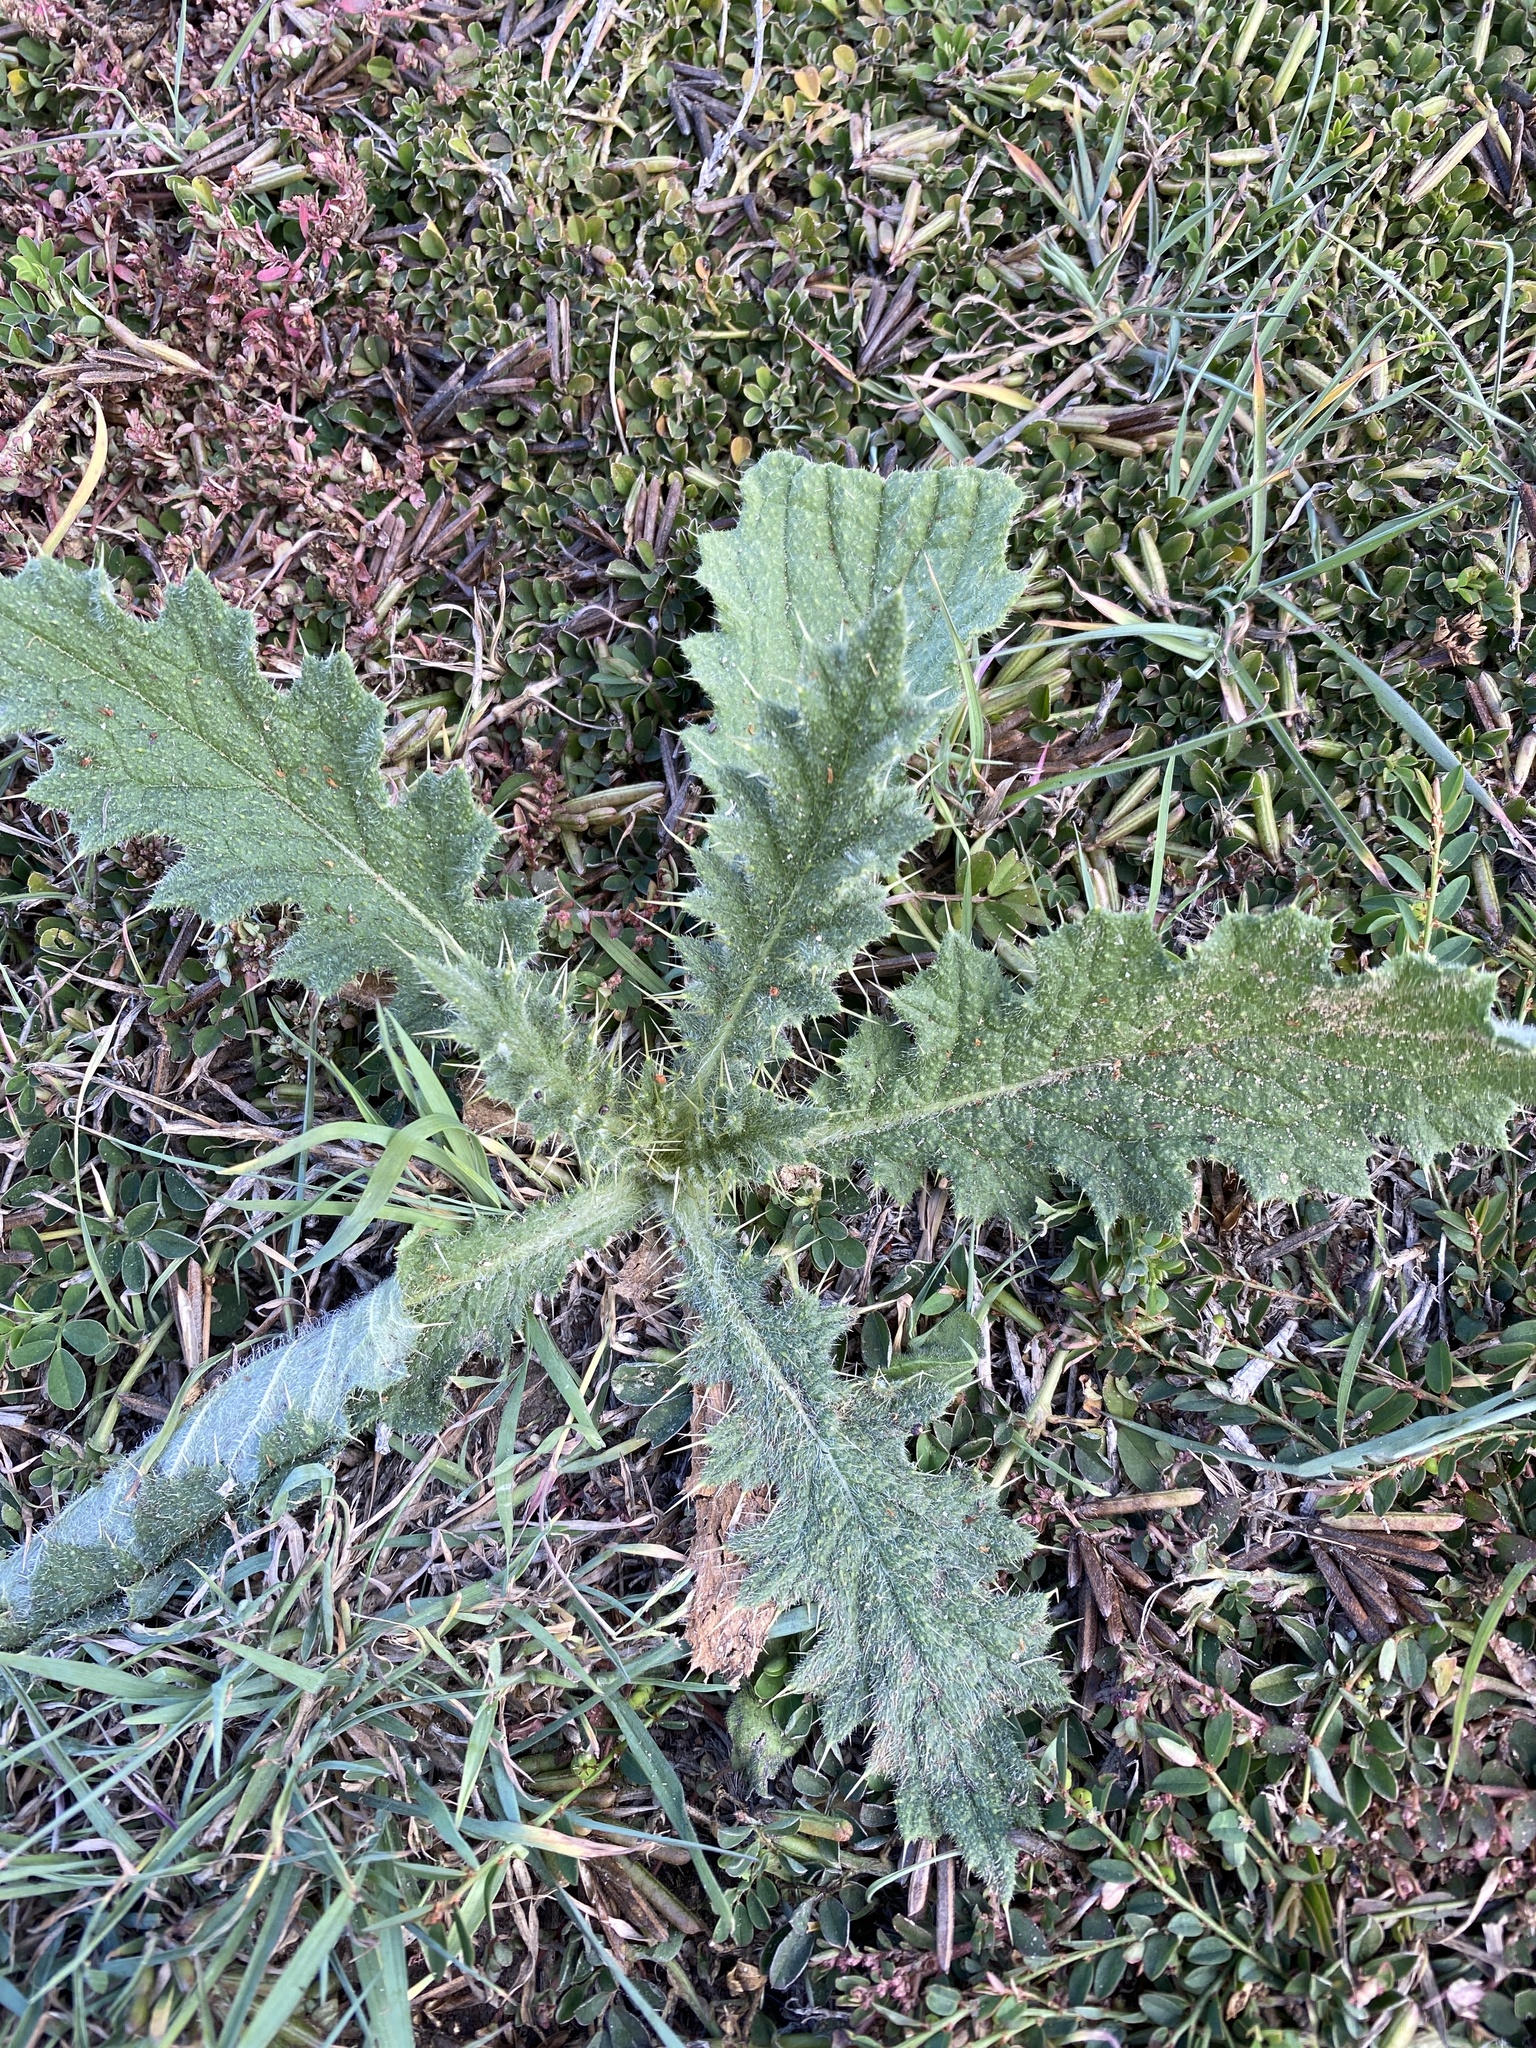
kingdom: Plantae
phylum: Tracheophyta
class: Magnoliopsida
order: Asterales
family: Asteraceae
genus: Cirsium
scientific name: Cirsium vulgare
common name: Bull thistle
